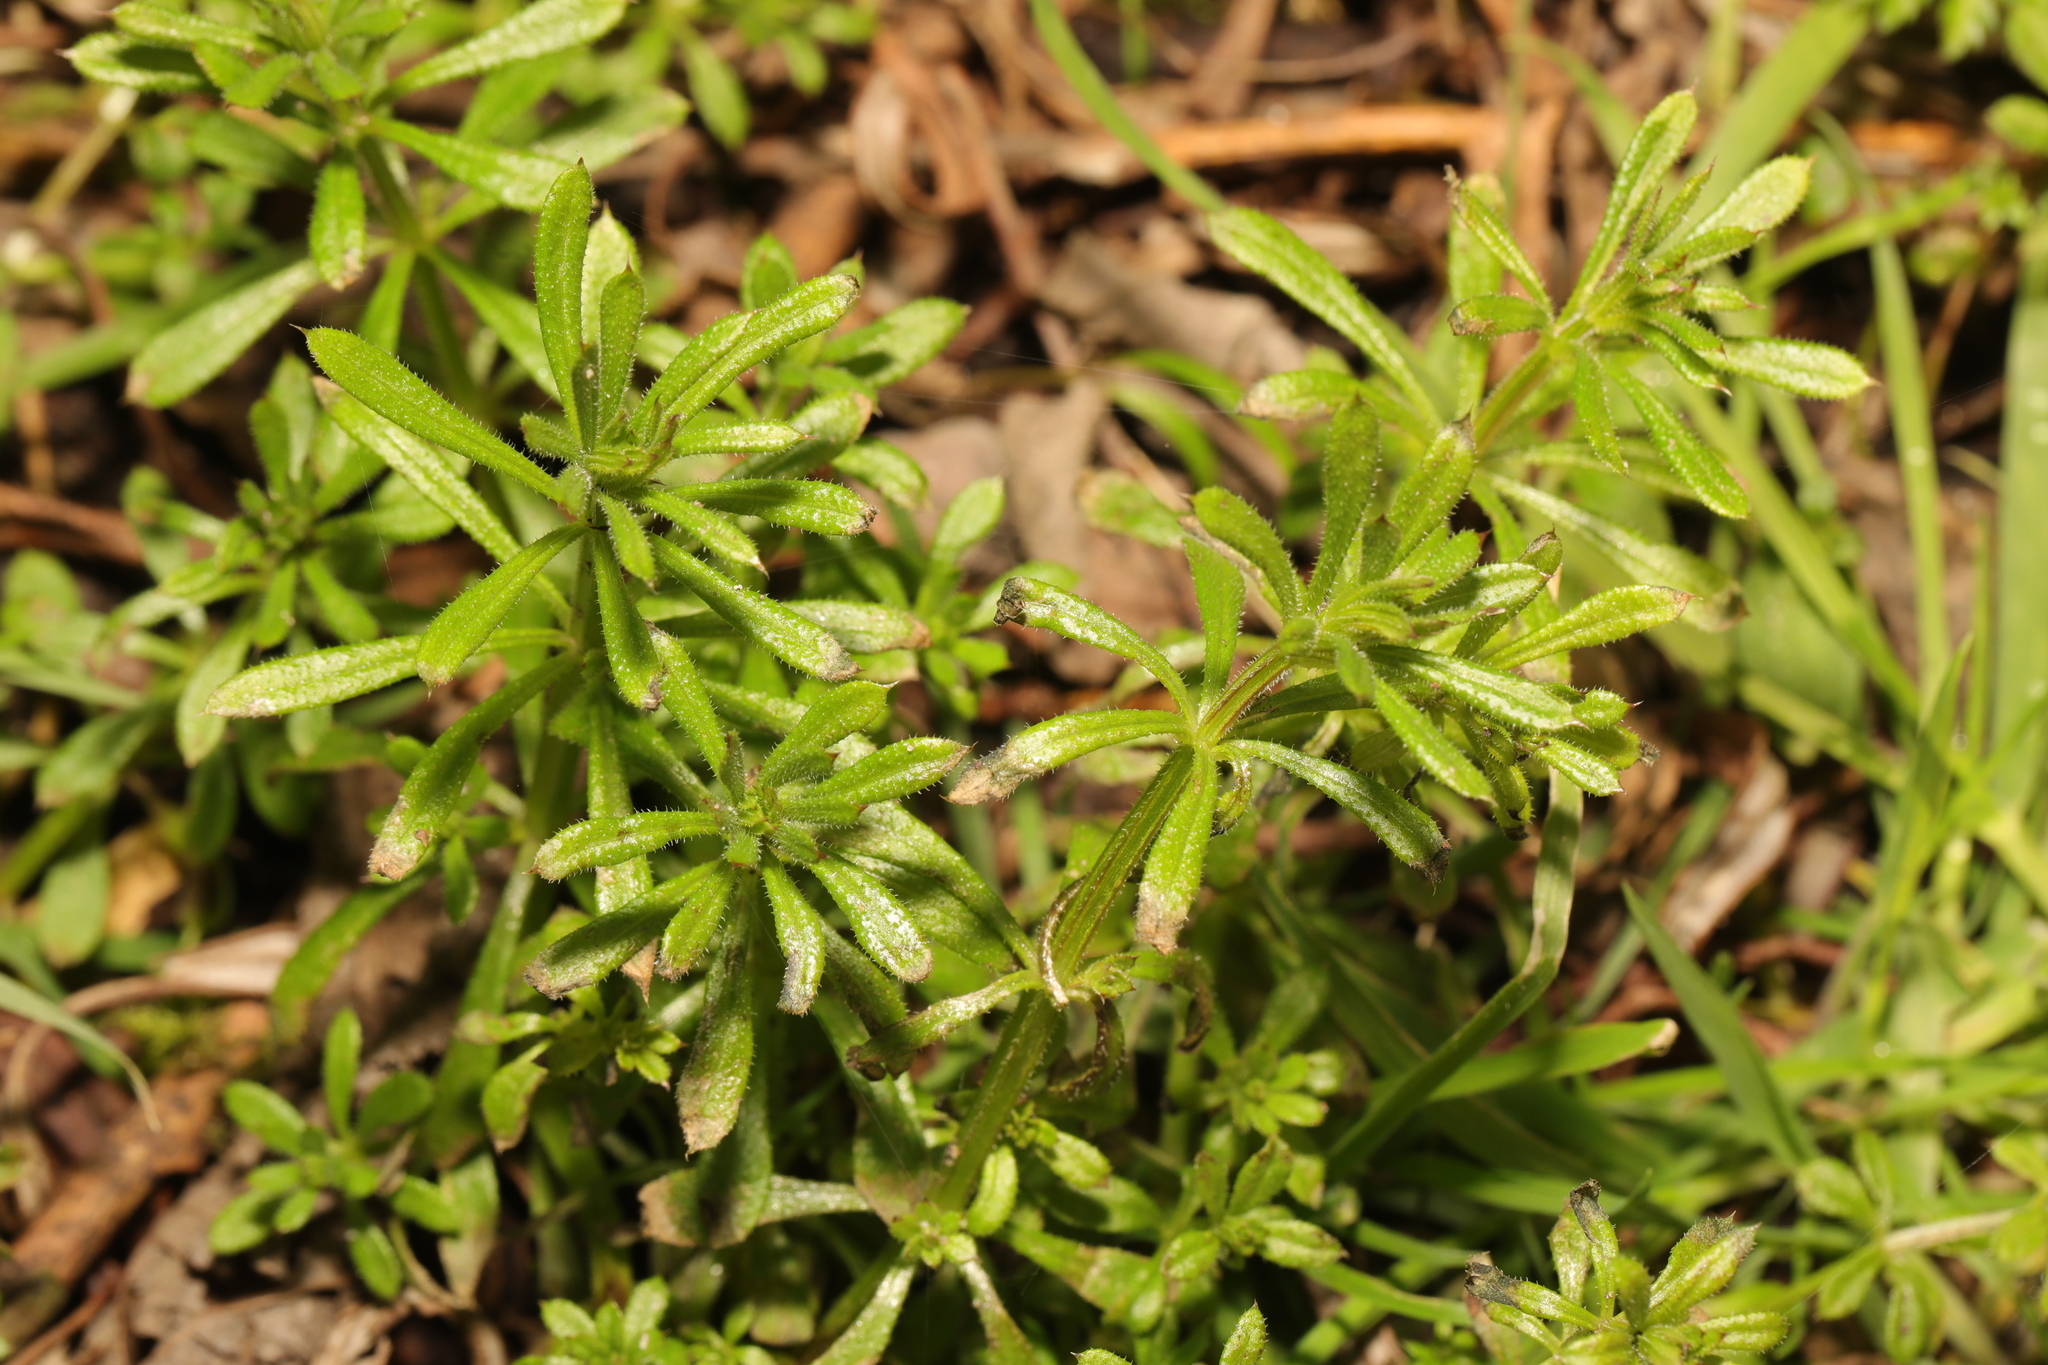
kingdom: Plantae
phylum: Tracheophyta
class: Magnoliopsida
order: Gentianales
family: Rubiaceae
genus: Galium
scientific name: Galium aparine
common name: Cleavers
